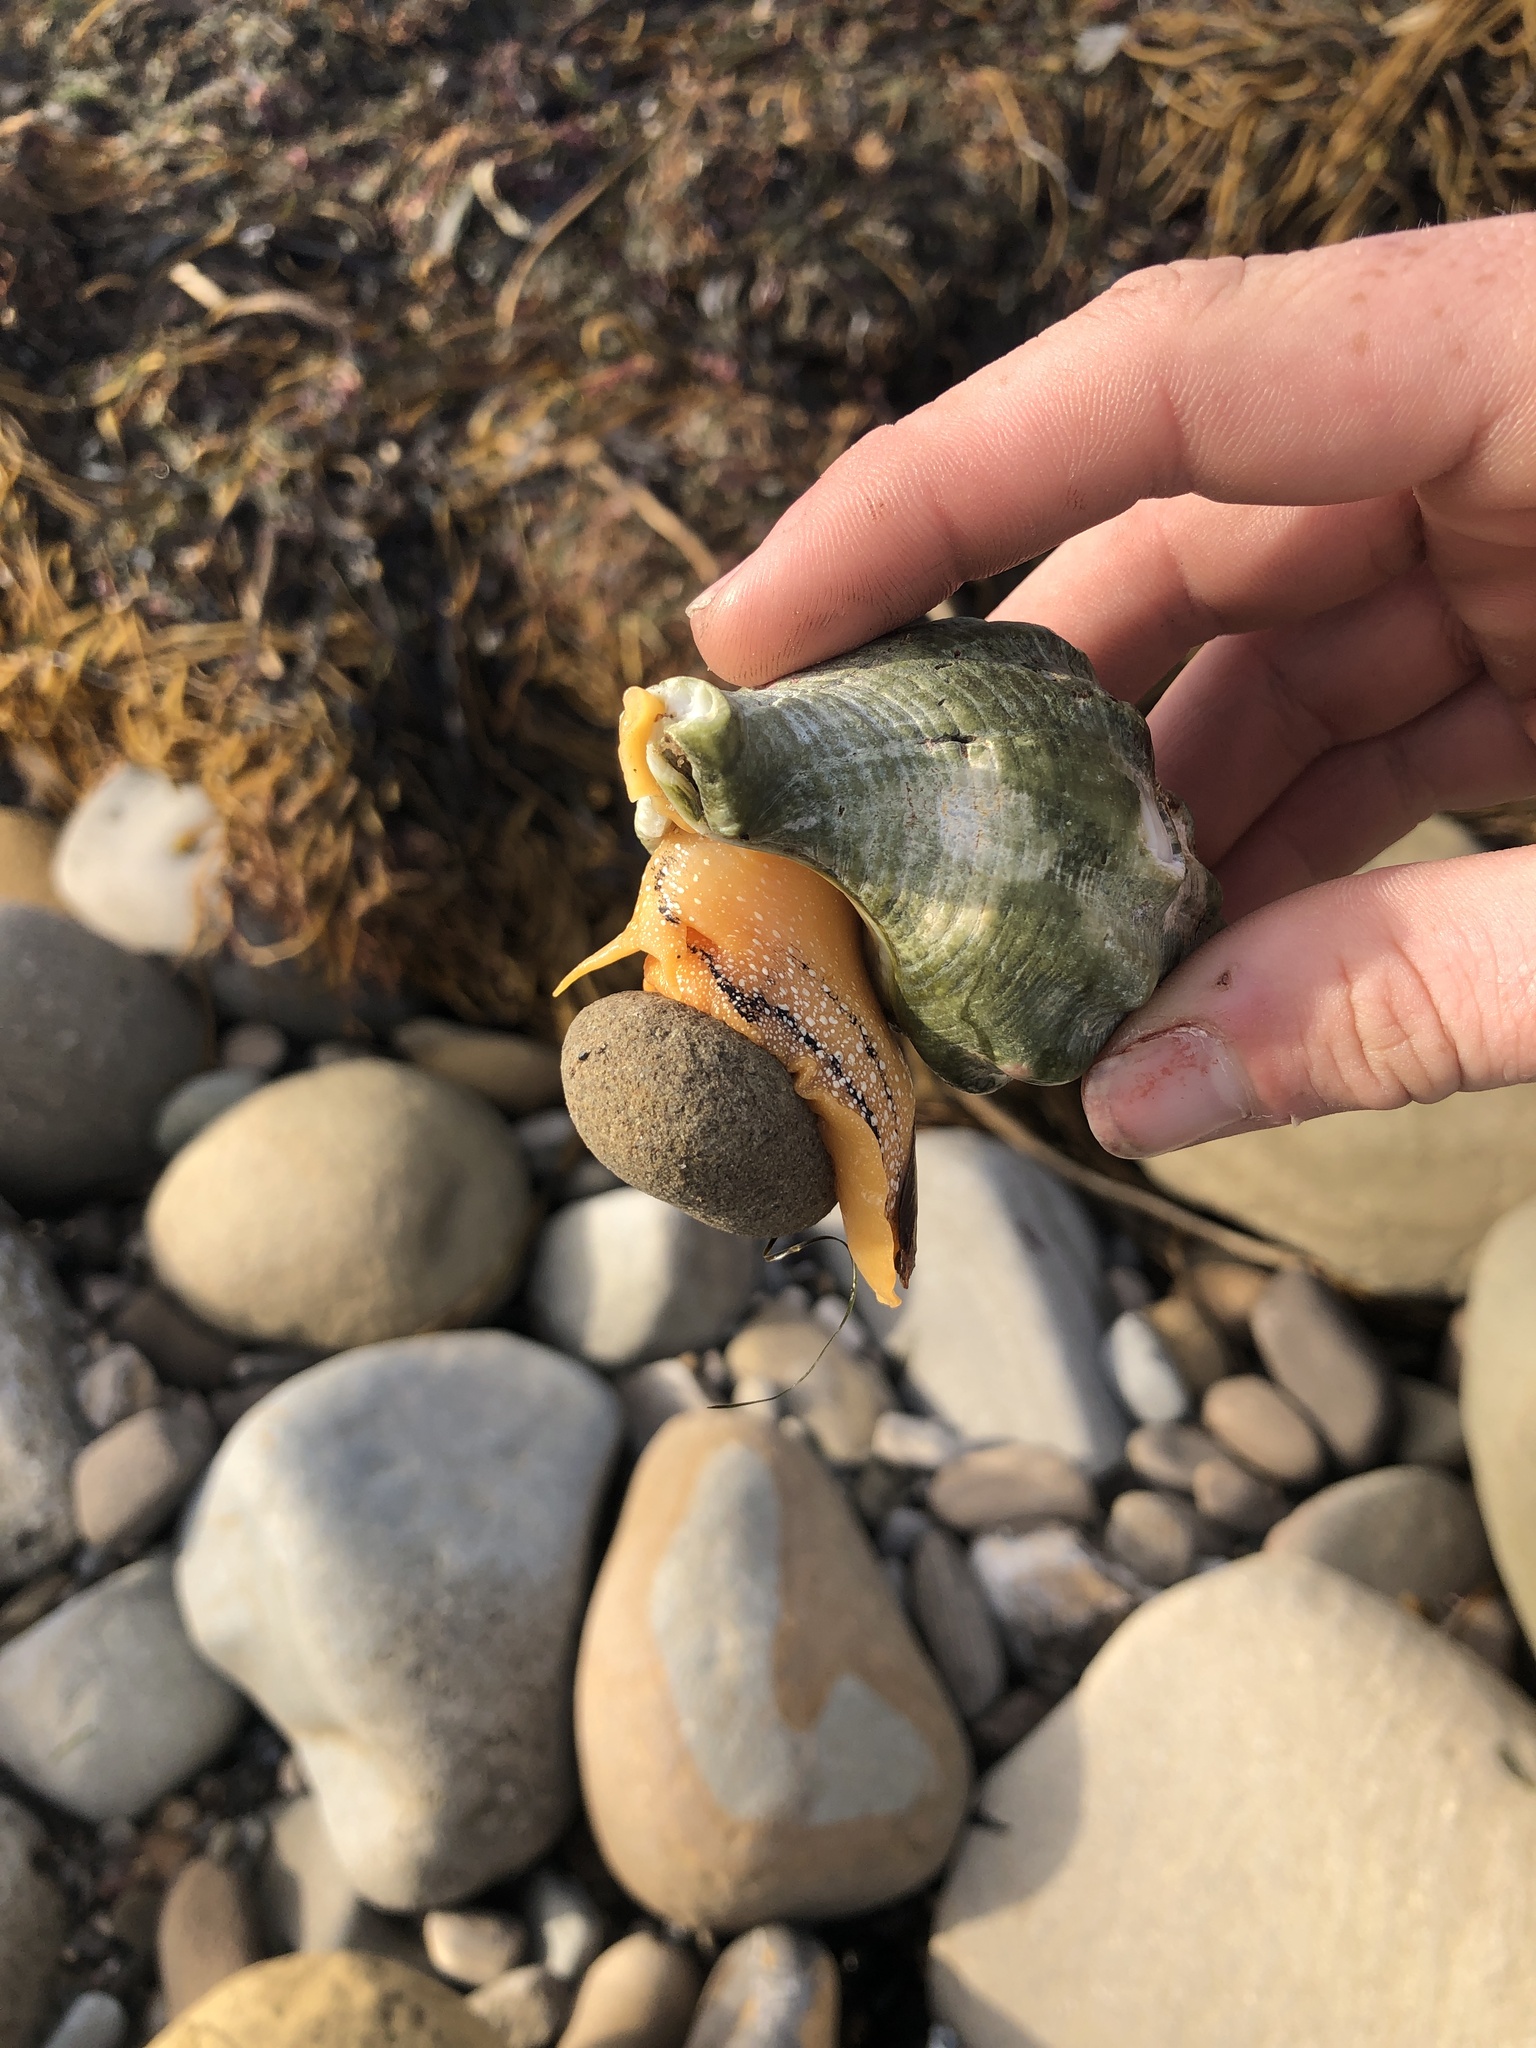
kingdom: Animalia
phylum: Mollusca
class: Gastropoda
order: Neogastropoda
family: Austrosiphonidae
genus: Kelletia
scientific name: Kelletia kelletii
